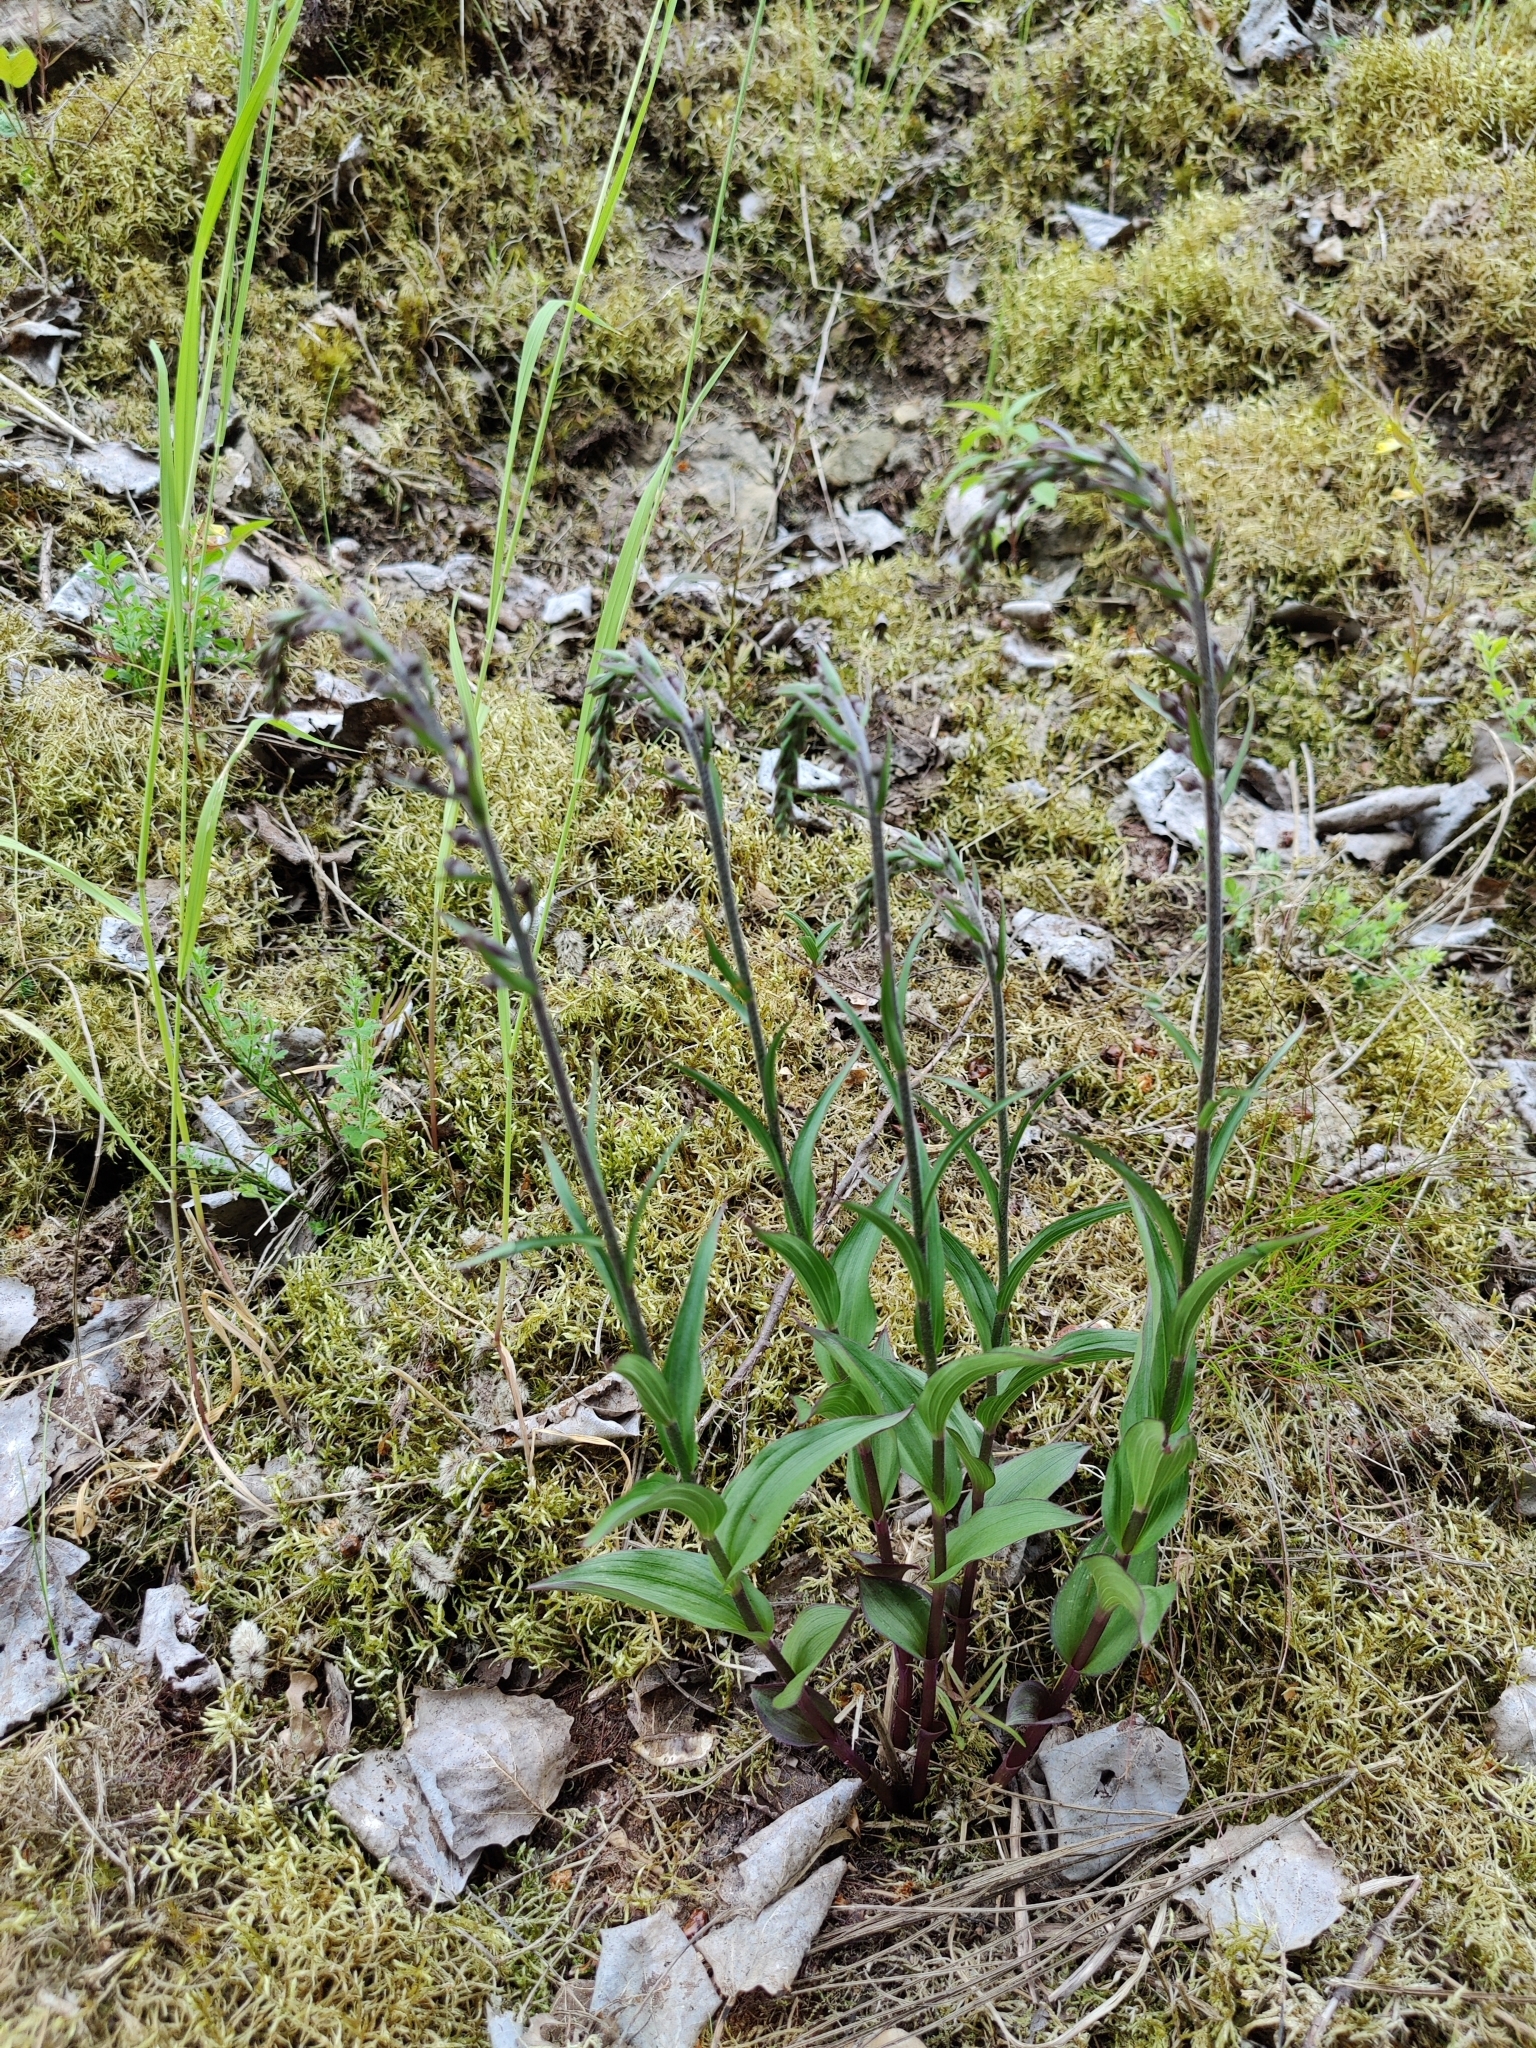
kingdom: Plantae
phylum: Tracheophyta
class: Liliopsida
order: Asparagales
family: Orchidaceae
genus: Epipactis
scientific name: Epipactis atrorubens
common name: Dark-red helleborine
